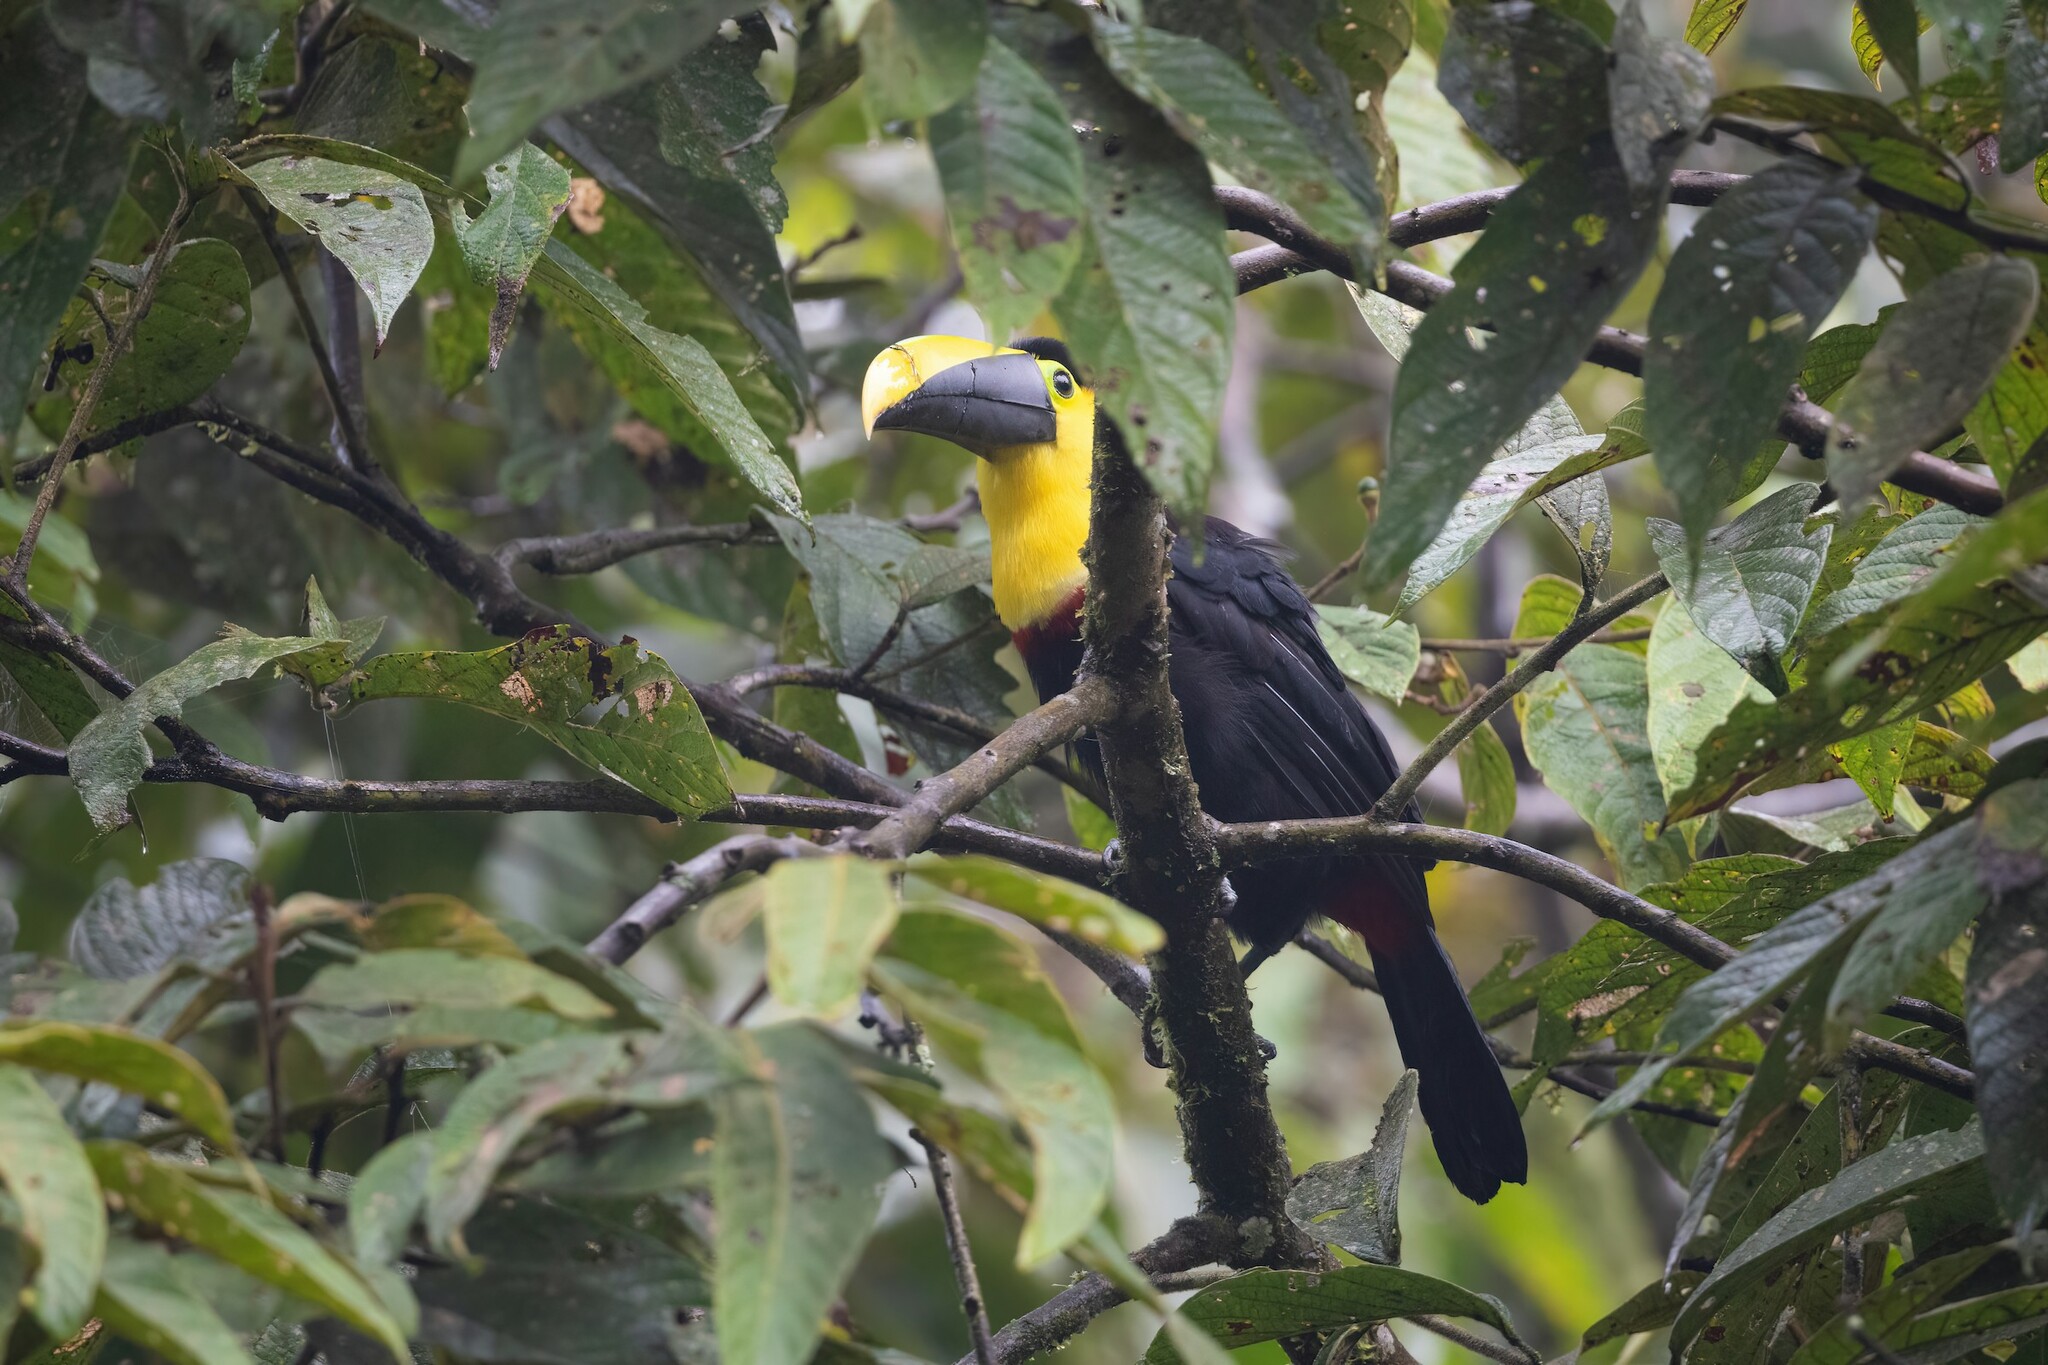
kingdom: Animalia
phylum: Chordata
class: Aves
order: Piciformes
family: Ramphastidae
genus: Ramphastos
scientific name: Ramphastos brevis
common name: Choco toucan
